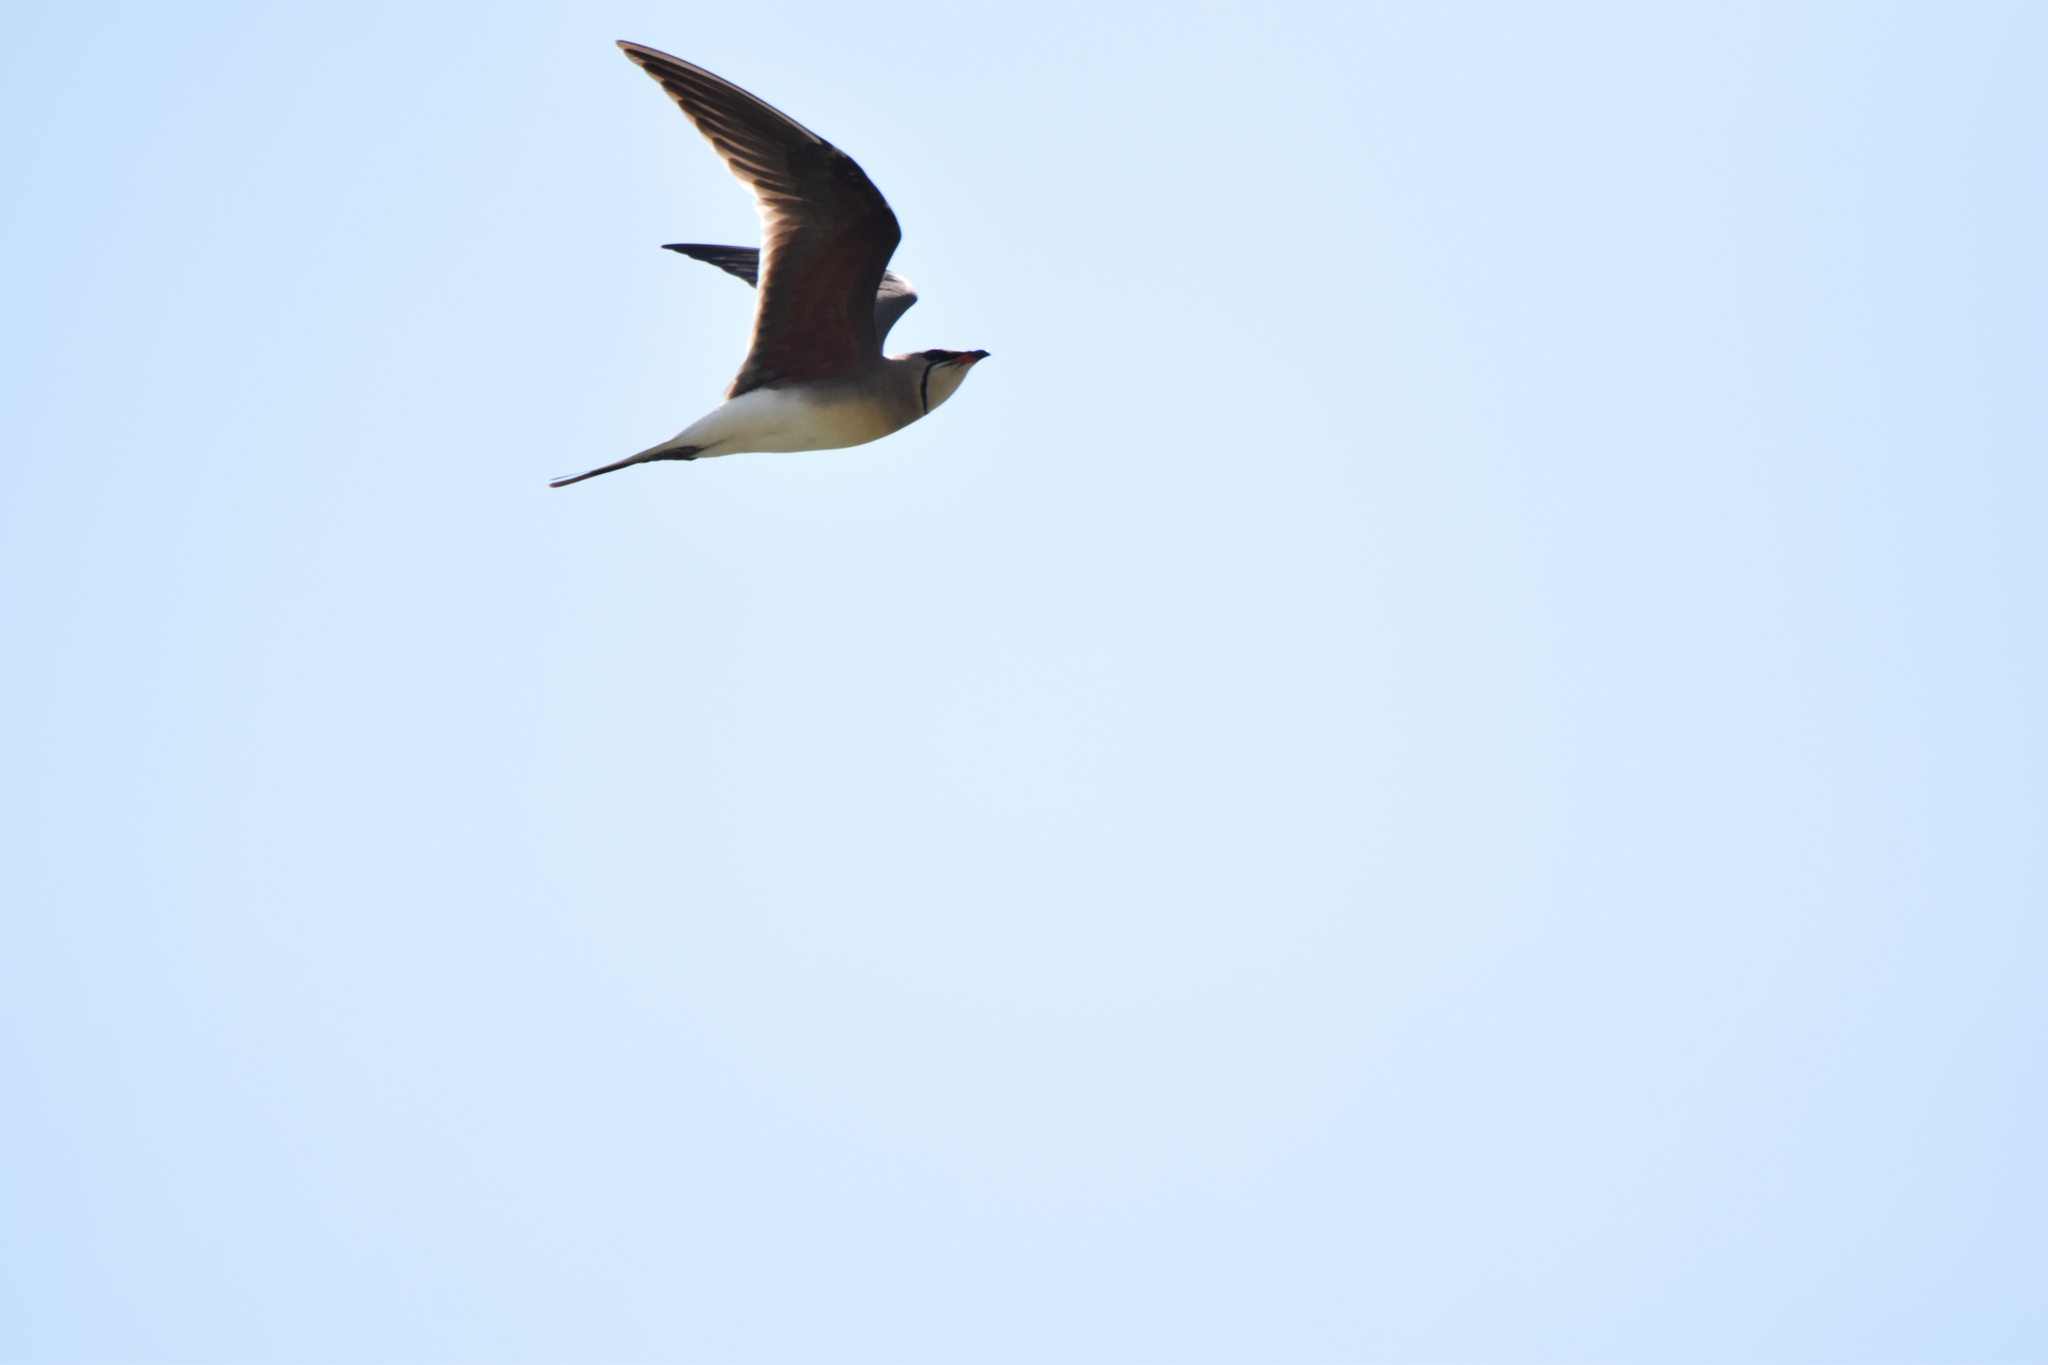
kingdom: Animalia
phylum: Chordata
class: Aves
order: Charadriiformes
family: Glareolidae
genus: Glareola
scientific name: Glareola pratincola
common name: Collared pratincole
